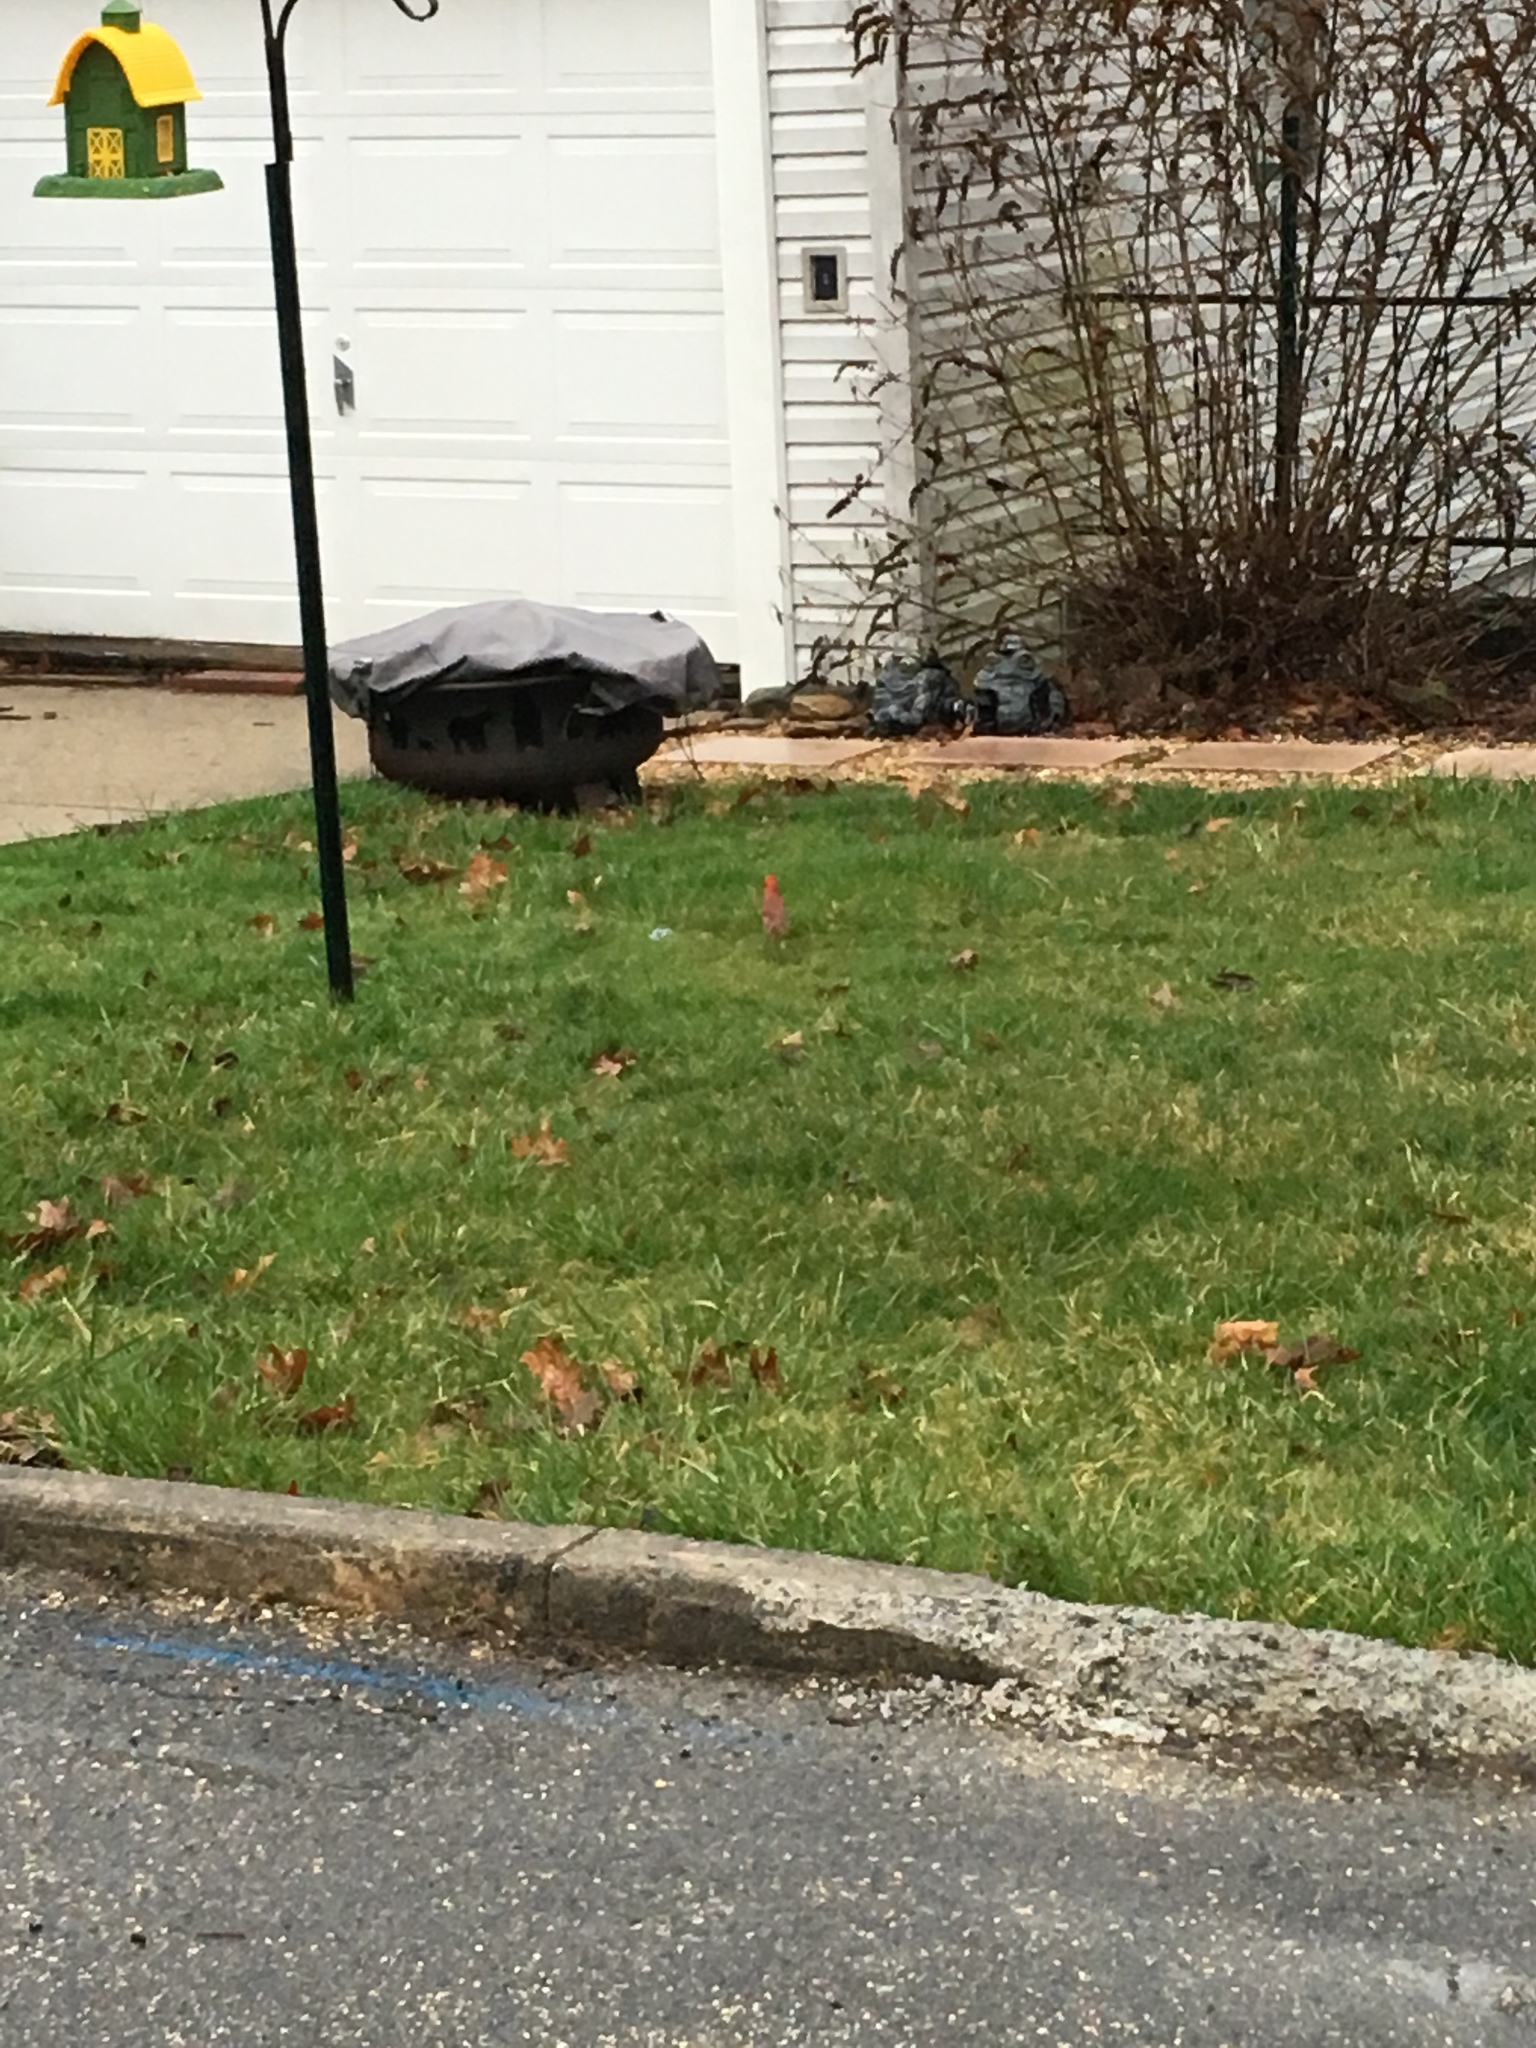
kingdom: Animalia
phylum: Chordata
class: Aves
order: Passeriformes
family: Cardinalidae
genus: Cardinalis
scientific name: Cardinalis cardinalis
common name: Northern cardinal
